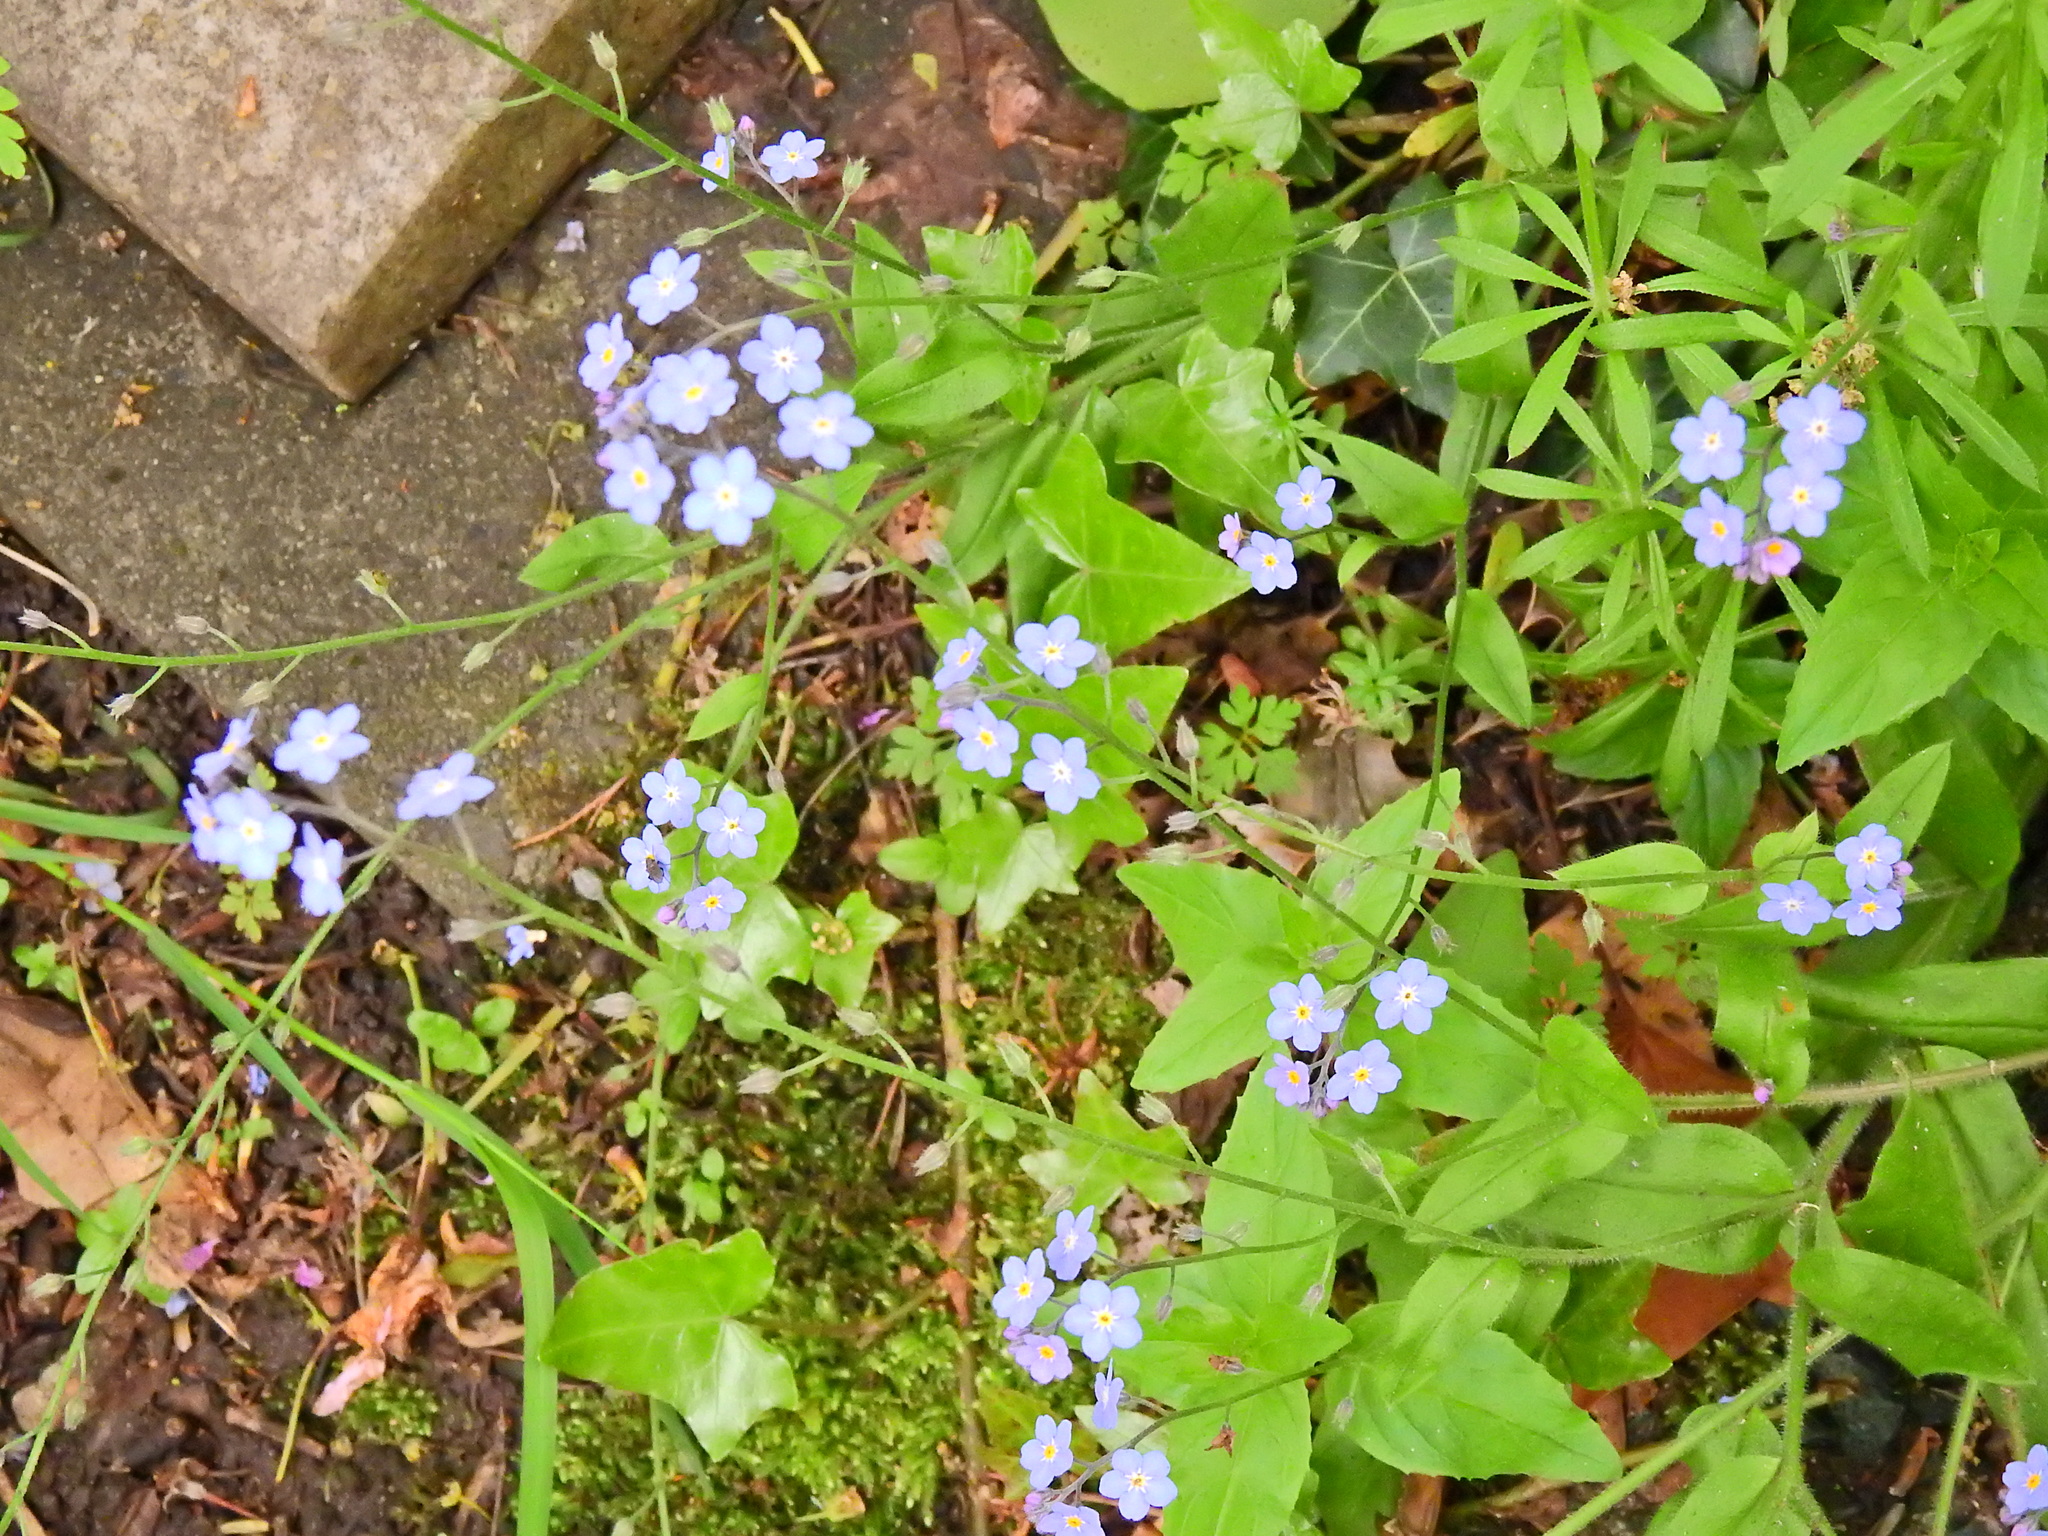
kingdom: Plantae
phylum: Tracheophyta
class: Magnoliopsida
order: Boraginales
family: Boraginaceae
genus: Myosotis
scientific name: Myosotis sylvatica
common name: Wood forget-me-not
